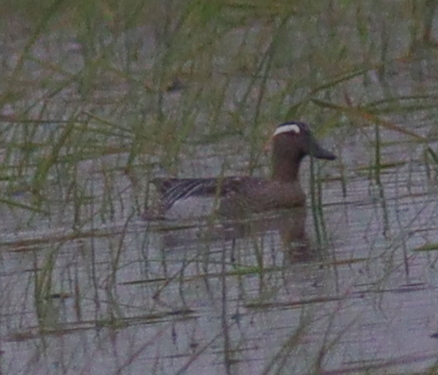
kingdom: Animalia
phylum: Chordata
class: Aves
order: Anseriformes
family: Anatidae
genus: Spatula
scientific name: Spatula querquedula
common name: Garganey
